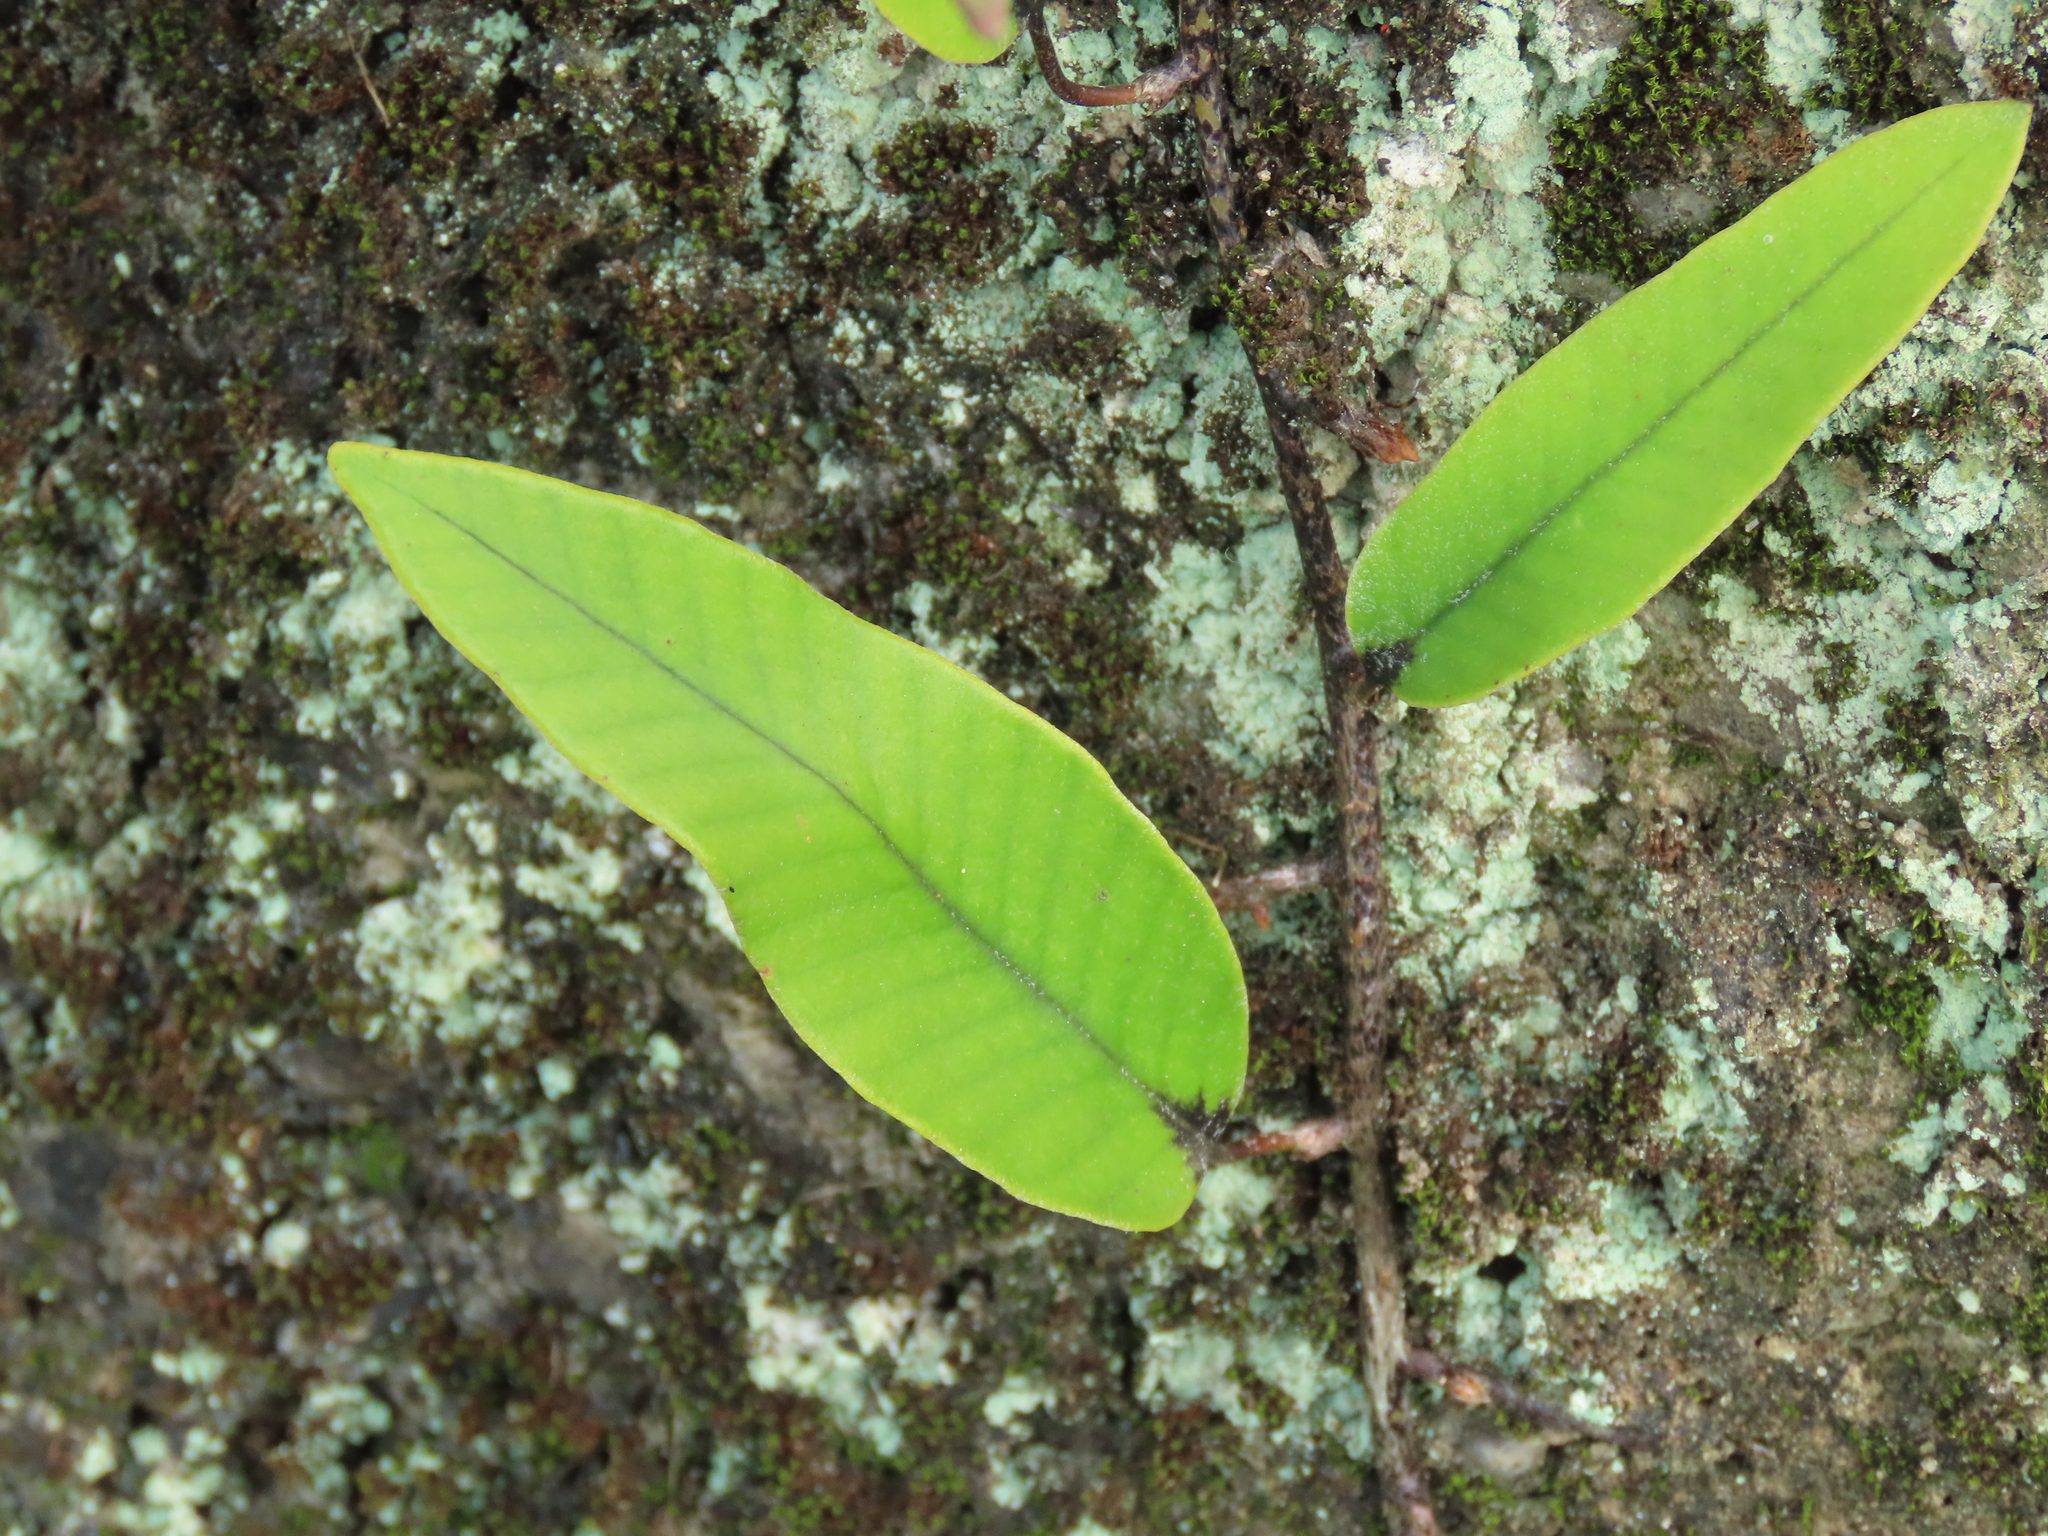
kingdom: Plantae
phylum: Tracheophyta
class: Polypodiopsida
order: Polypodiales
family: Polypodiaceae
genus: Pyrrosia
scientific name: Pyrrosia lingua
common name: Felt fern
